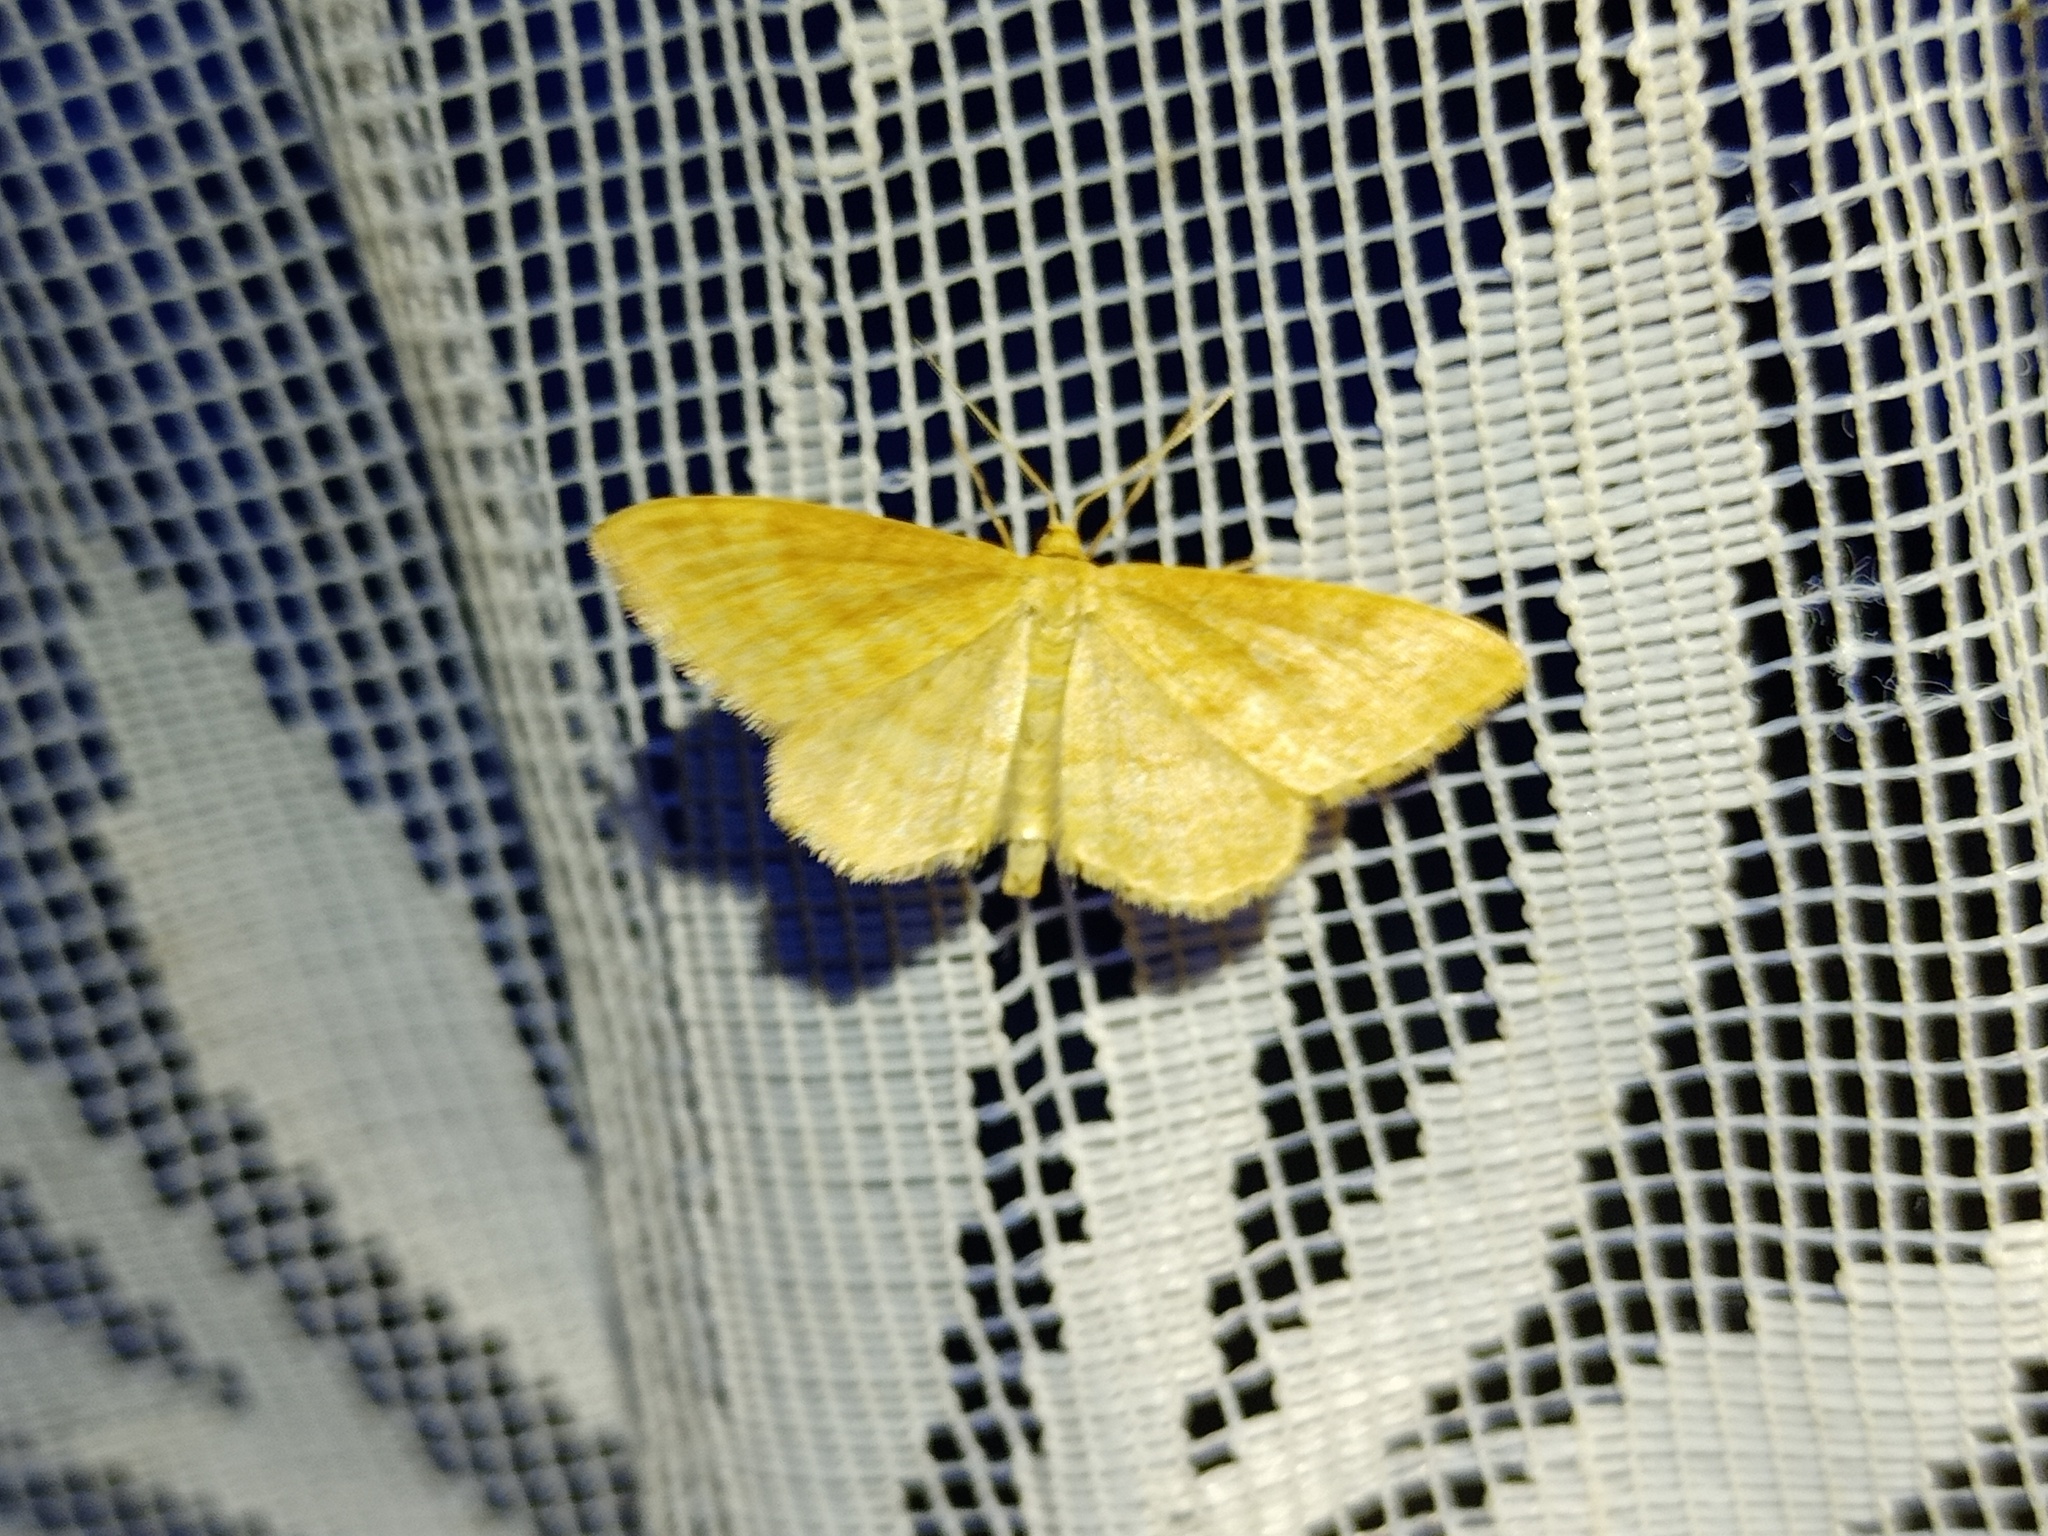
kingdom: Animalia
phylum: Arthropoda
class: Insecta
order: Lepidoptera
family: Geometridae
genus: Idaea
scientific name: Idaea ochrata
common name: Bright wave
